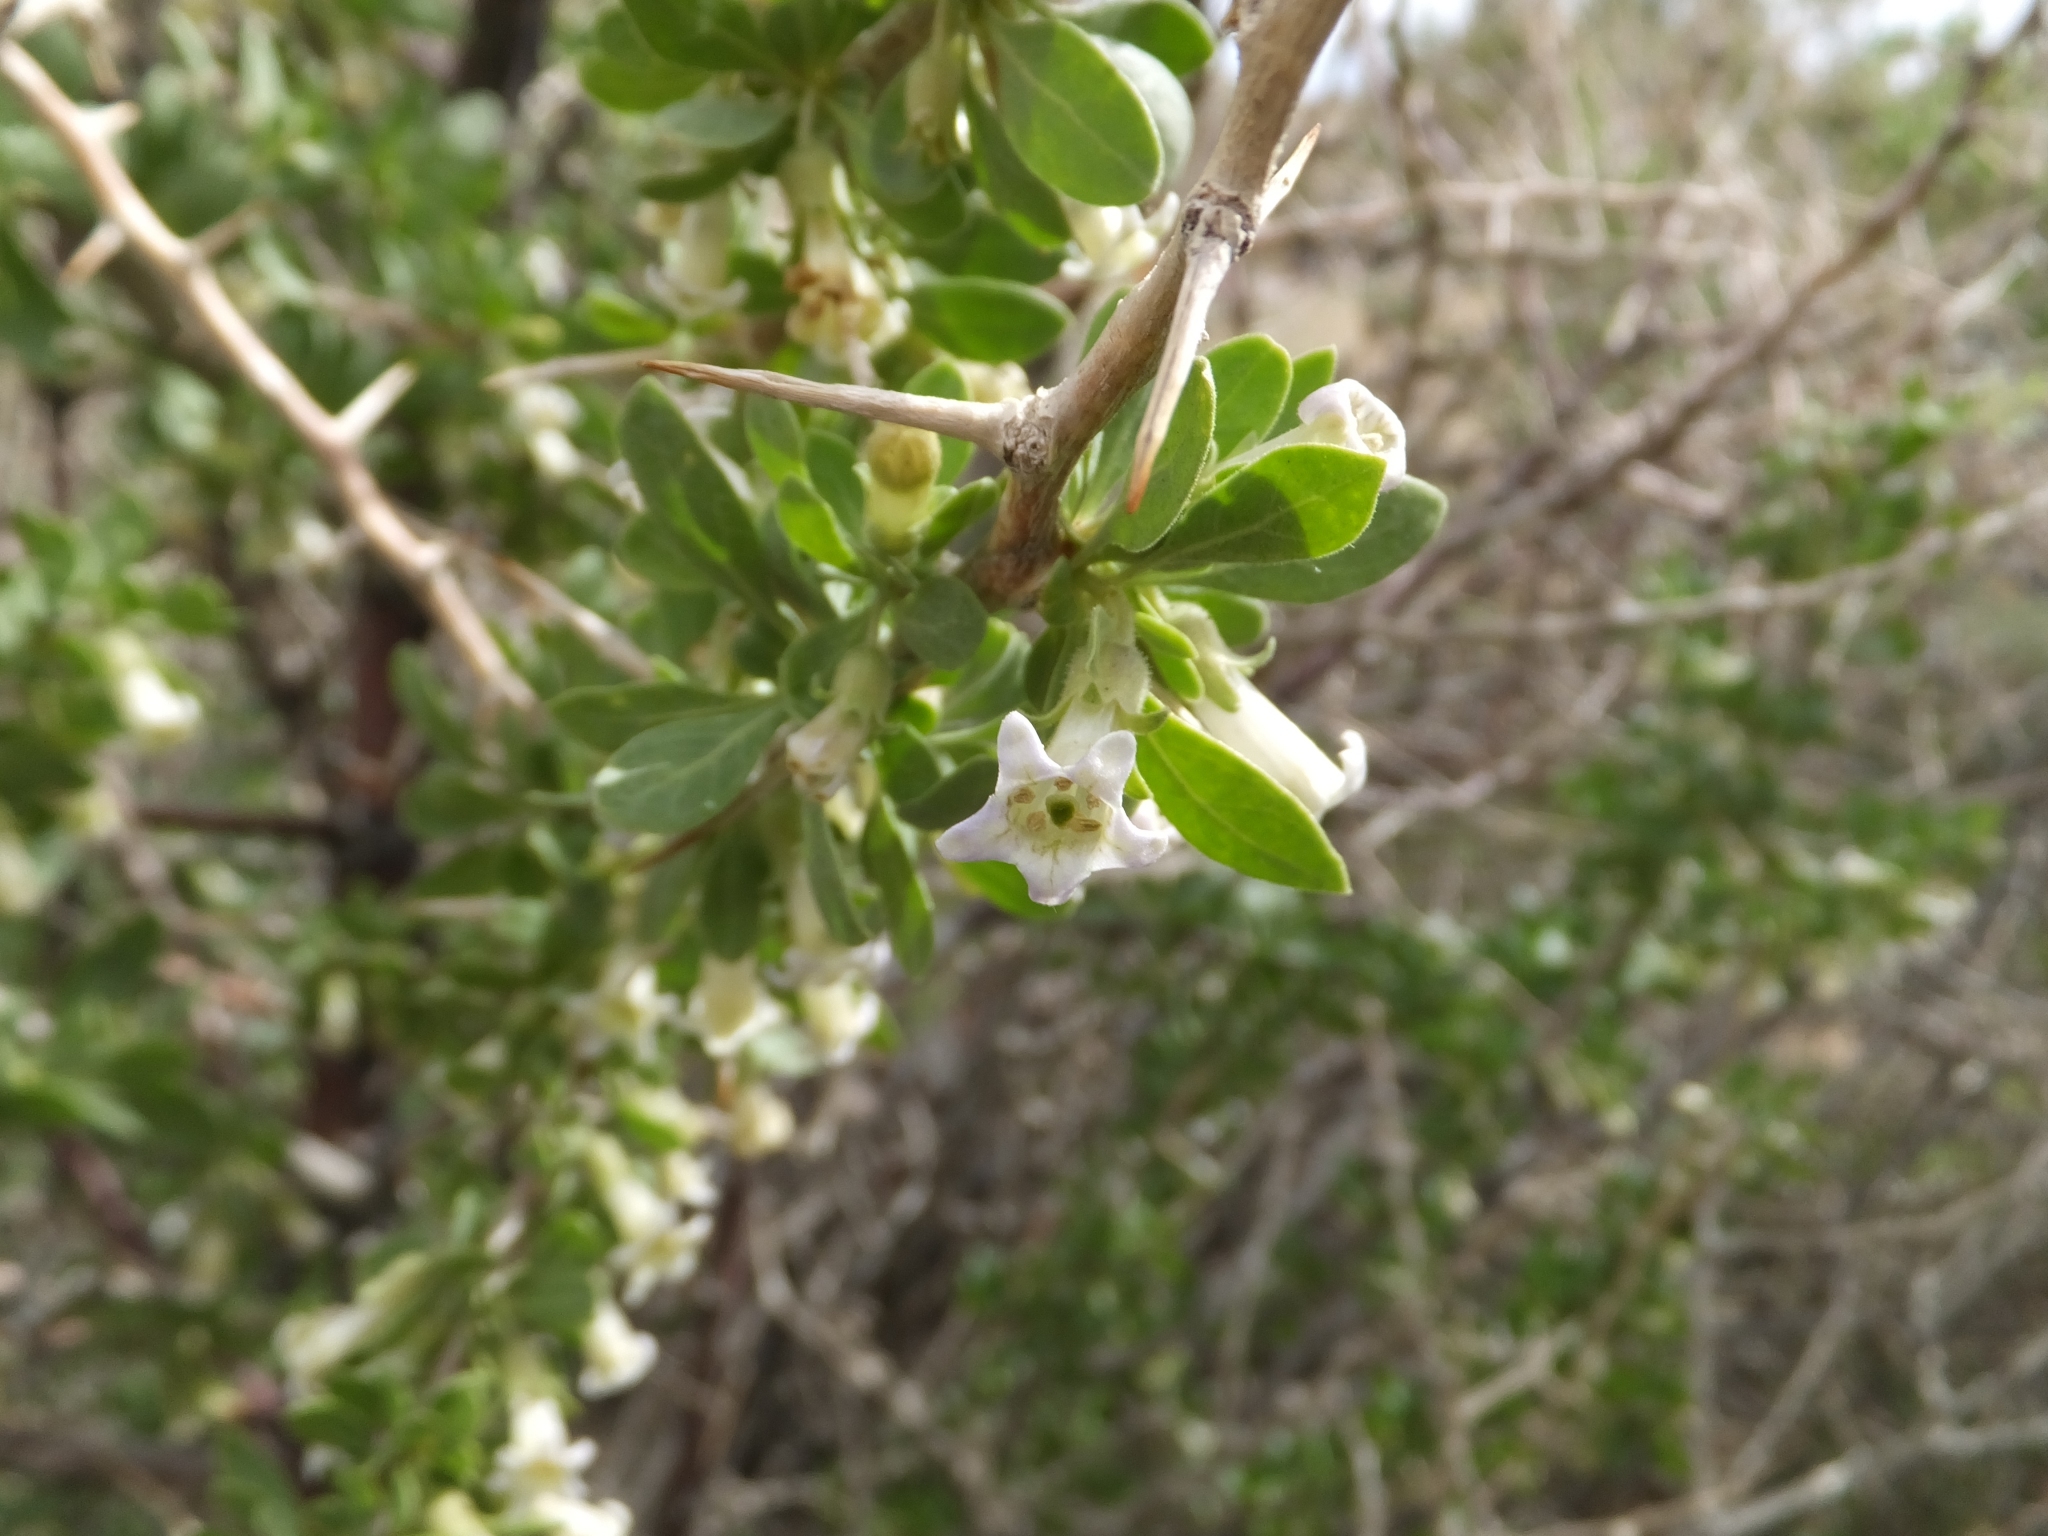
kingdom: Plantae
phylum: Tracheophyta
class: Magnoliopsida
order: Solanales
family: Solanaceae
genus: Lycium
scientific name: Lycium cooperi
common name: Peachthorn
